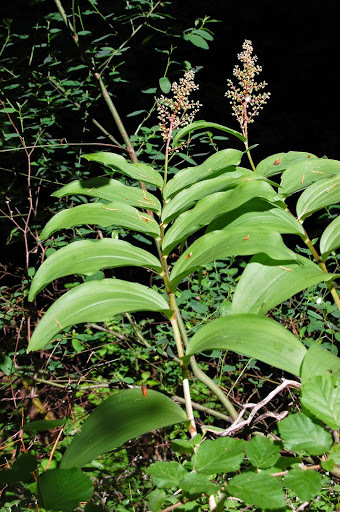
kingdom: Plantae
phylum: Tracheophyta
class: Liliopsida
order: Asparagales
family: Asparagaceae
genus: Maianthemum
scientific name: Maianthemum racemosum
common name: False spikenard
